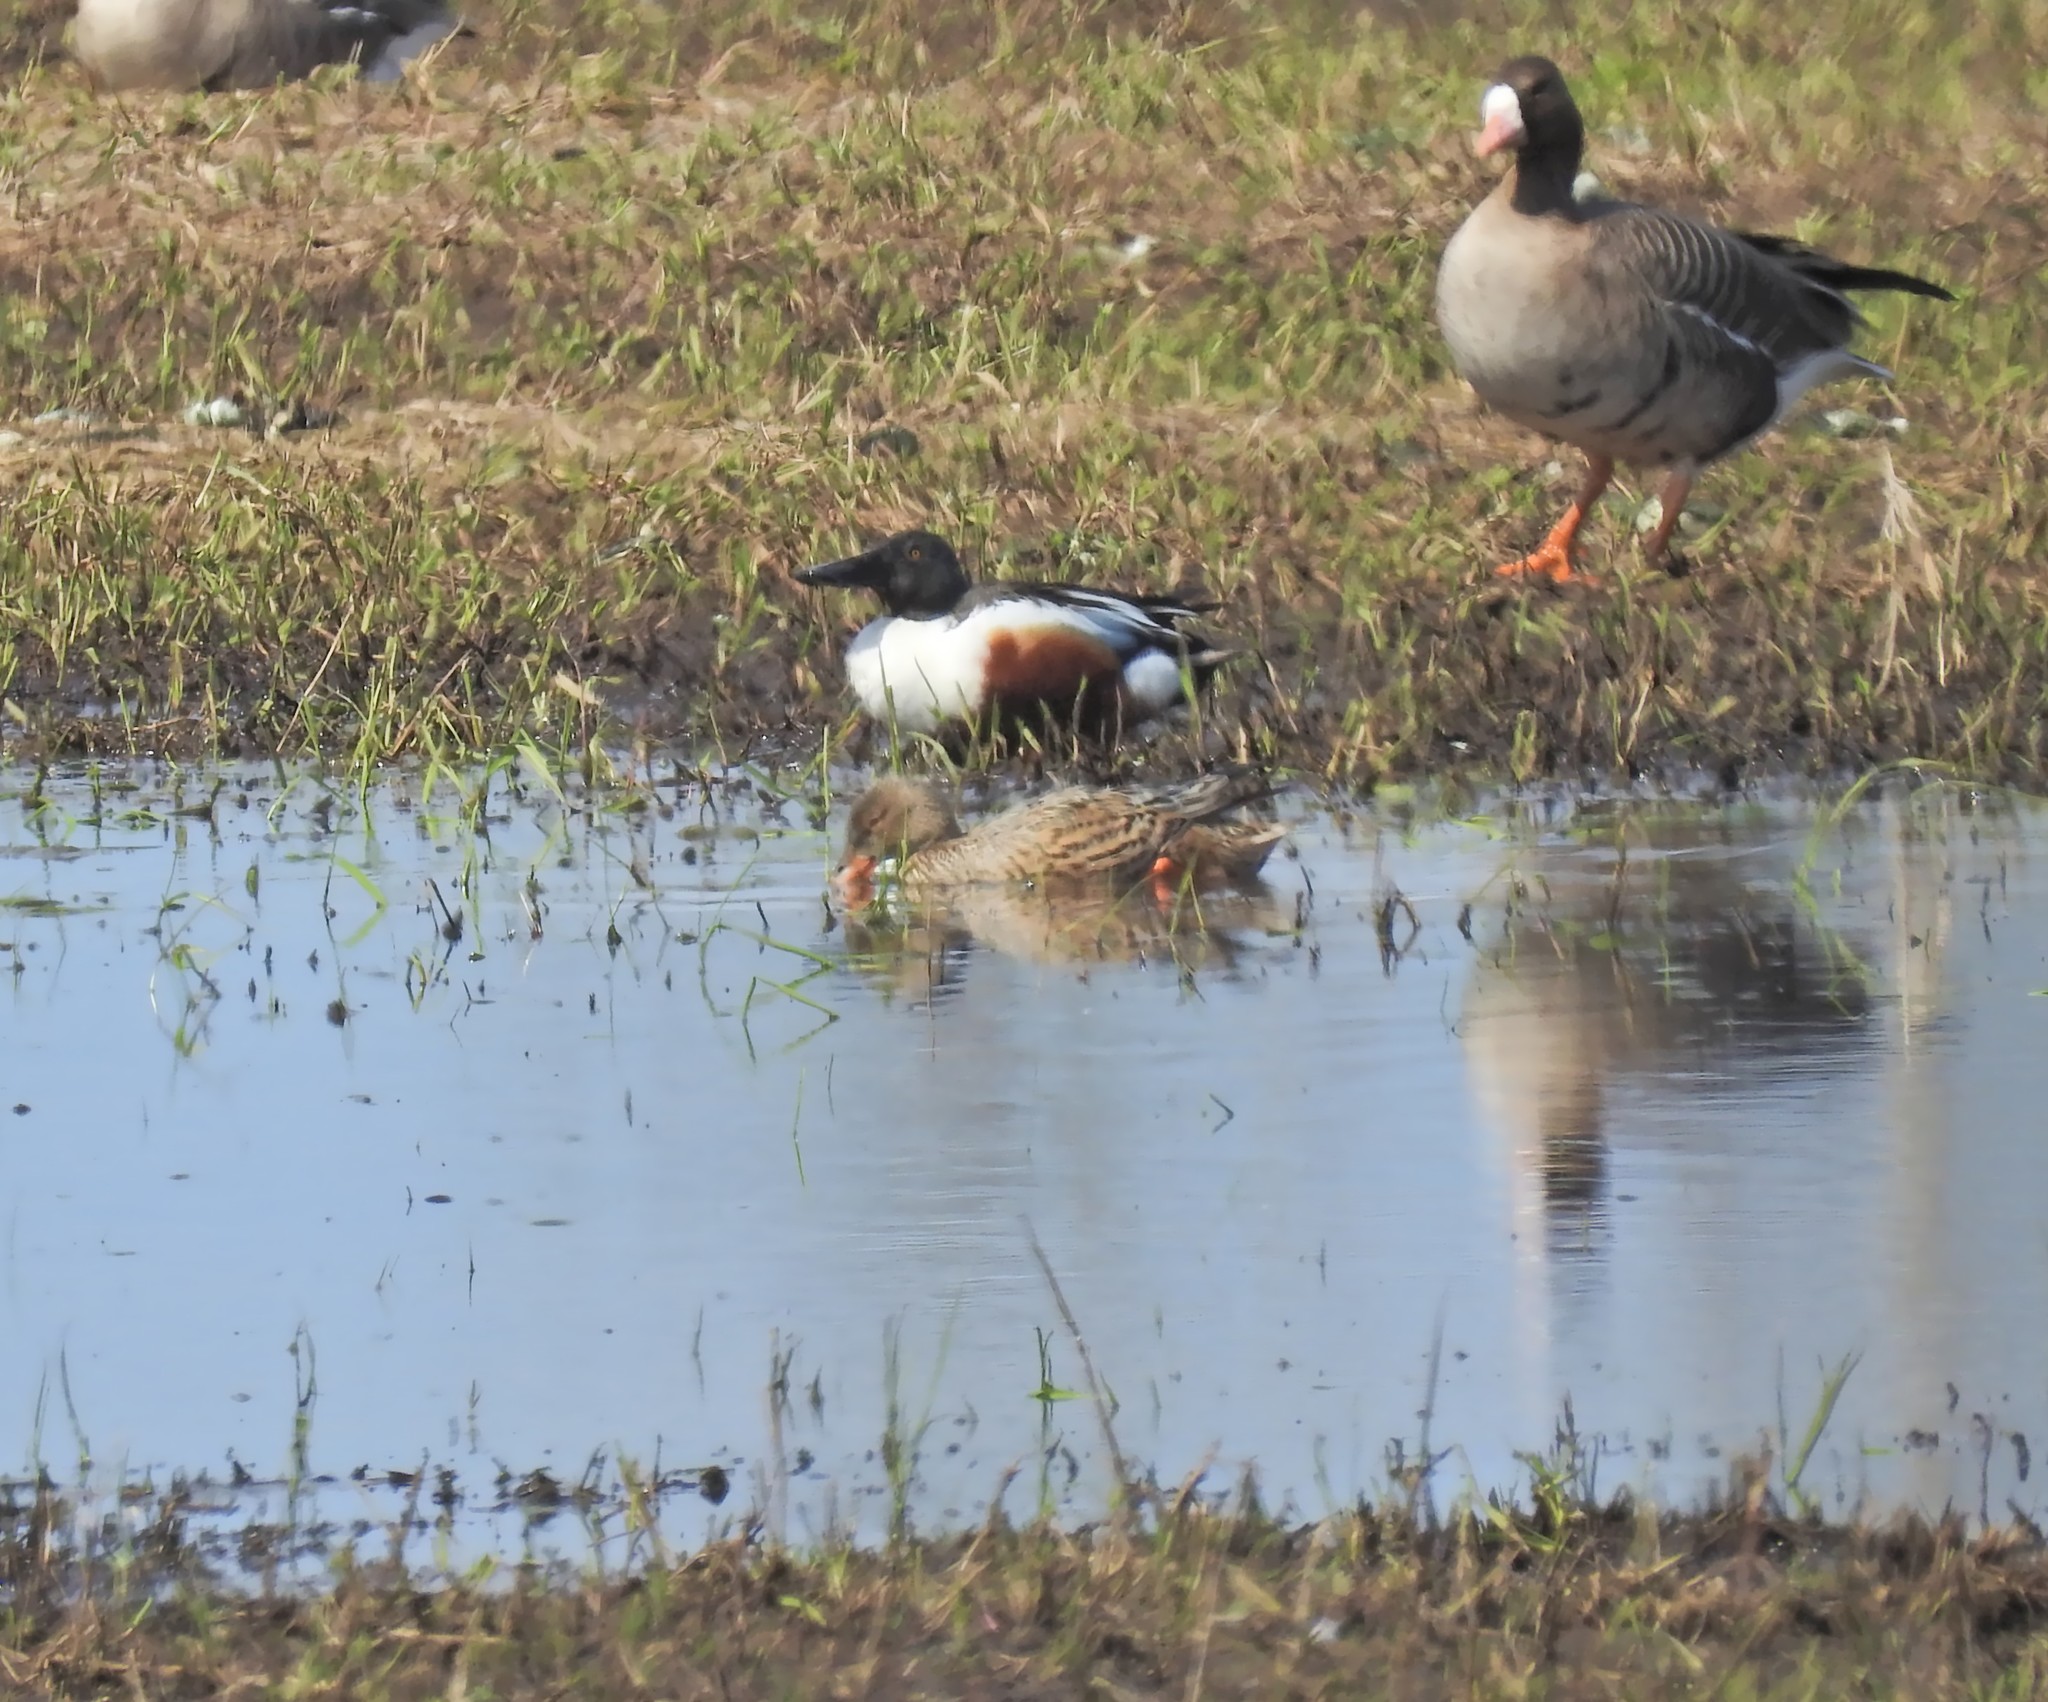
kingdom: Animalia
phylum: Chordata
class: Aves
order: Anseriformes
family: Anatidae
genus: Spatula
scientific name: Spatula clypeata
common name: Northern shoveler
